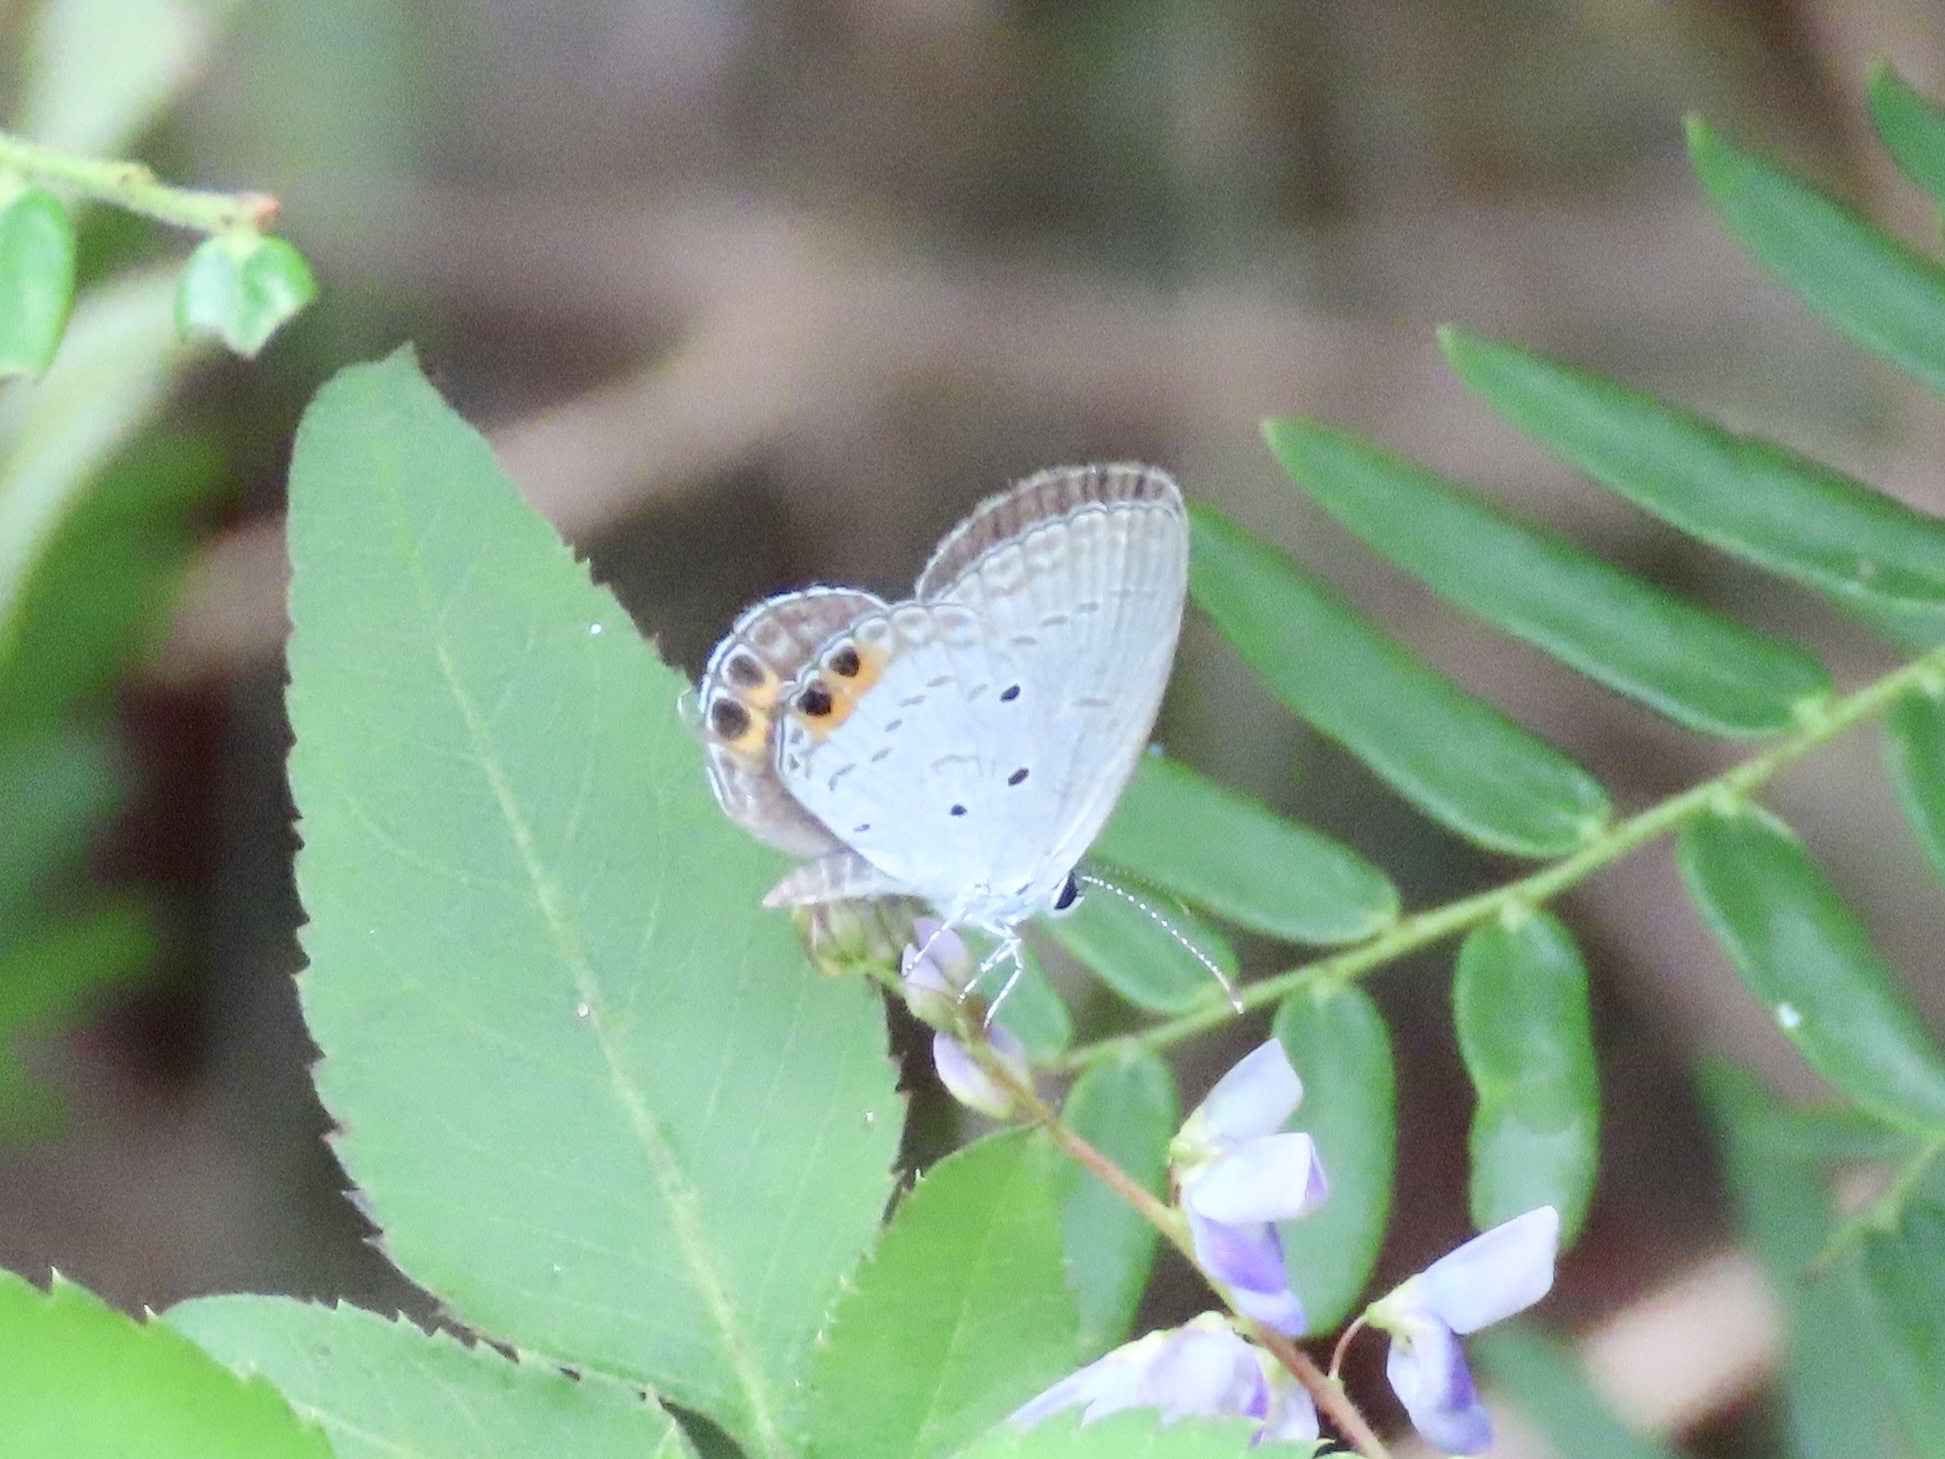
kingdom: Animalia
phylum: Arthropoda
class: Insecta
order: Lepidoptera
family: Lycaenidae
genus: Everes
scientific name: Everes lacturnus
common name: Orange-tipped pea-blue
